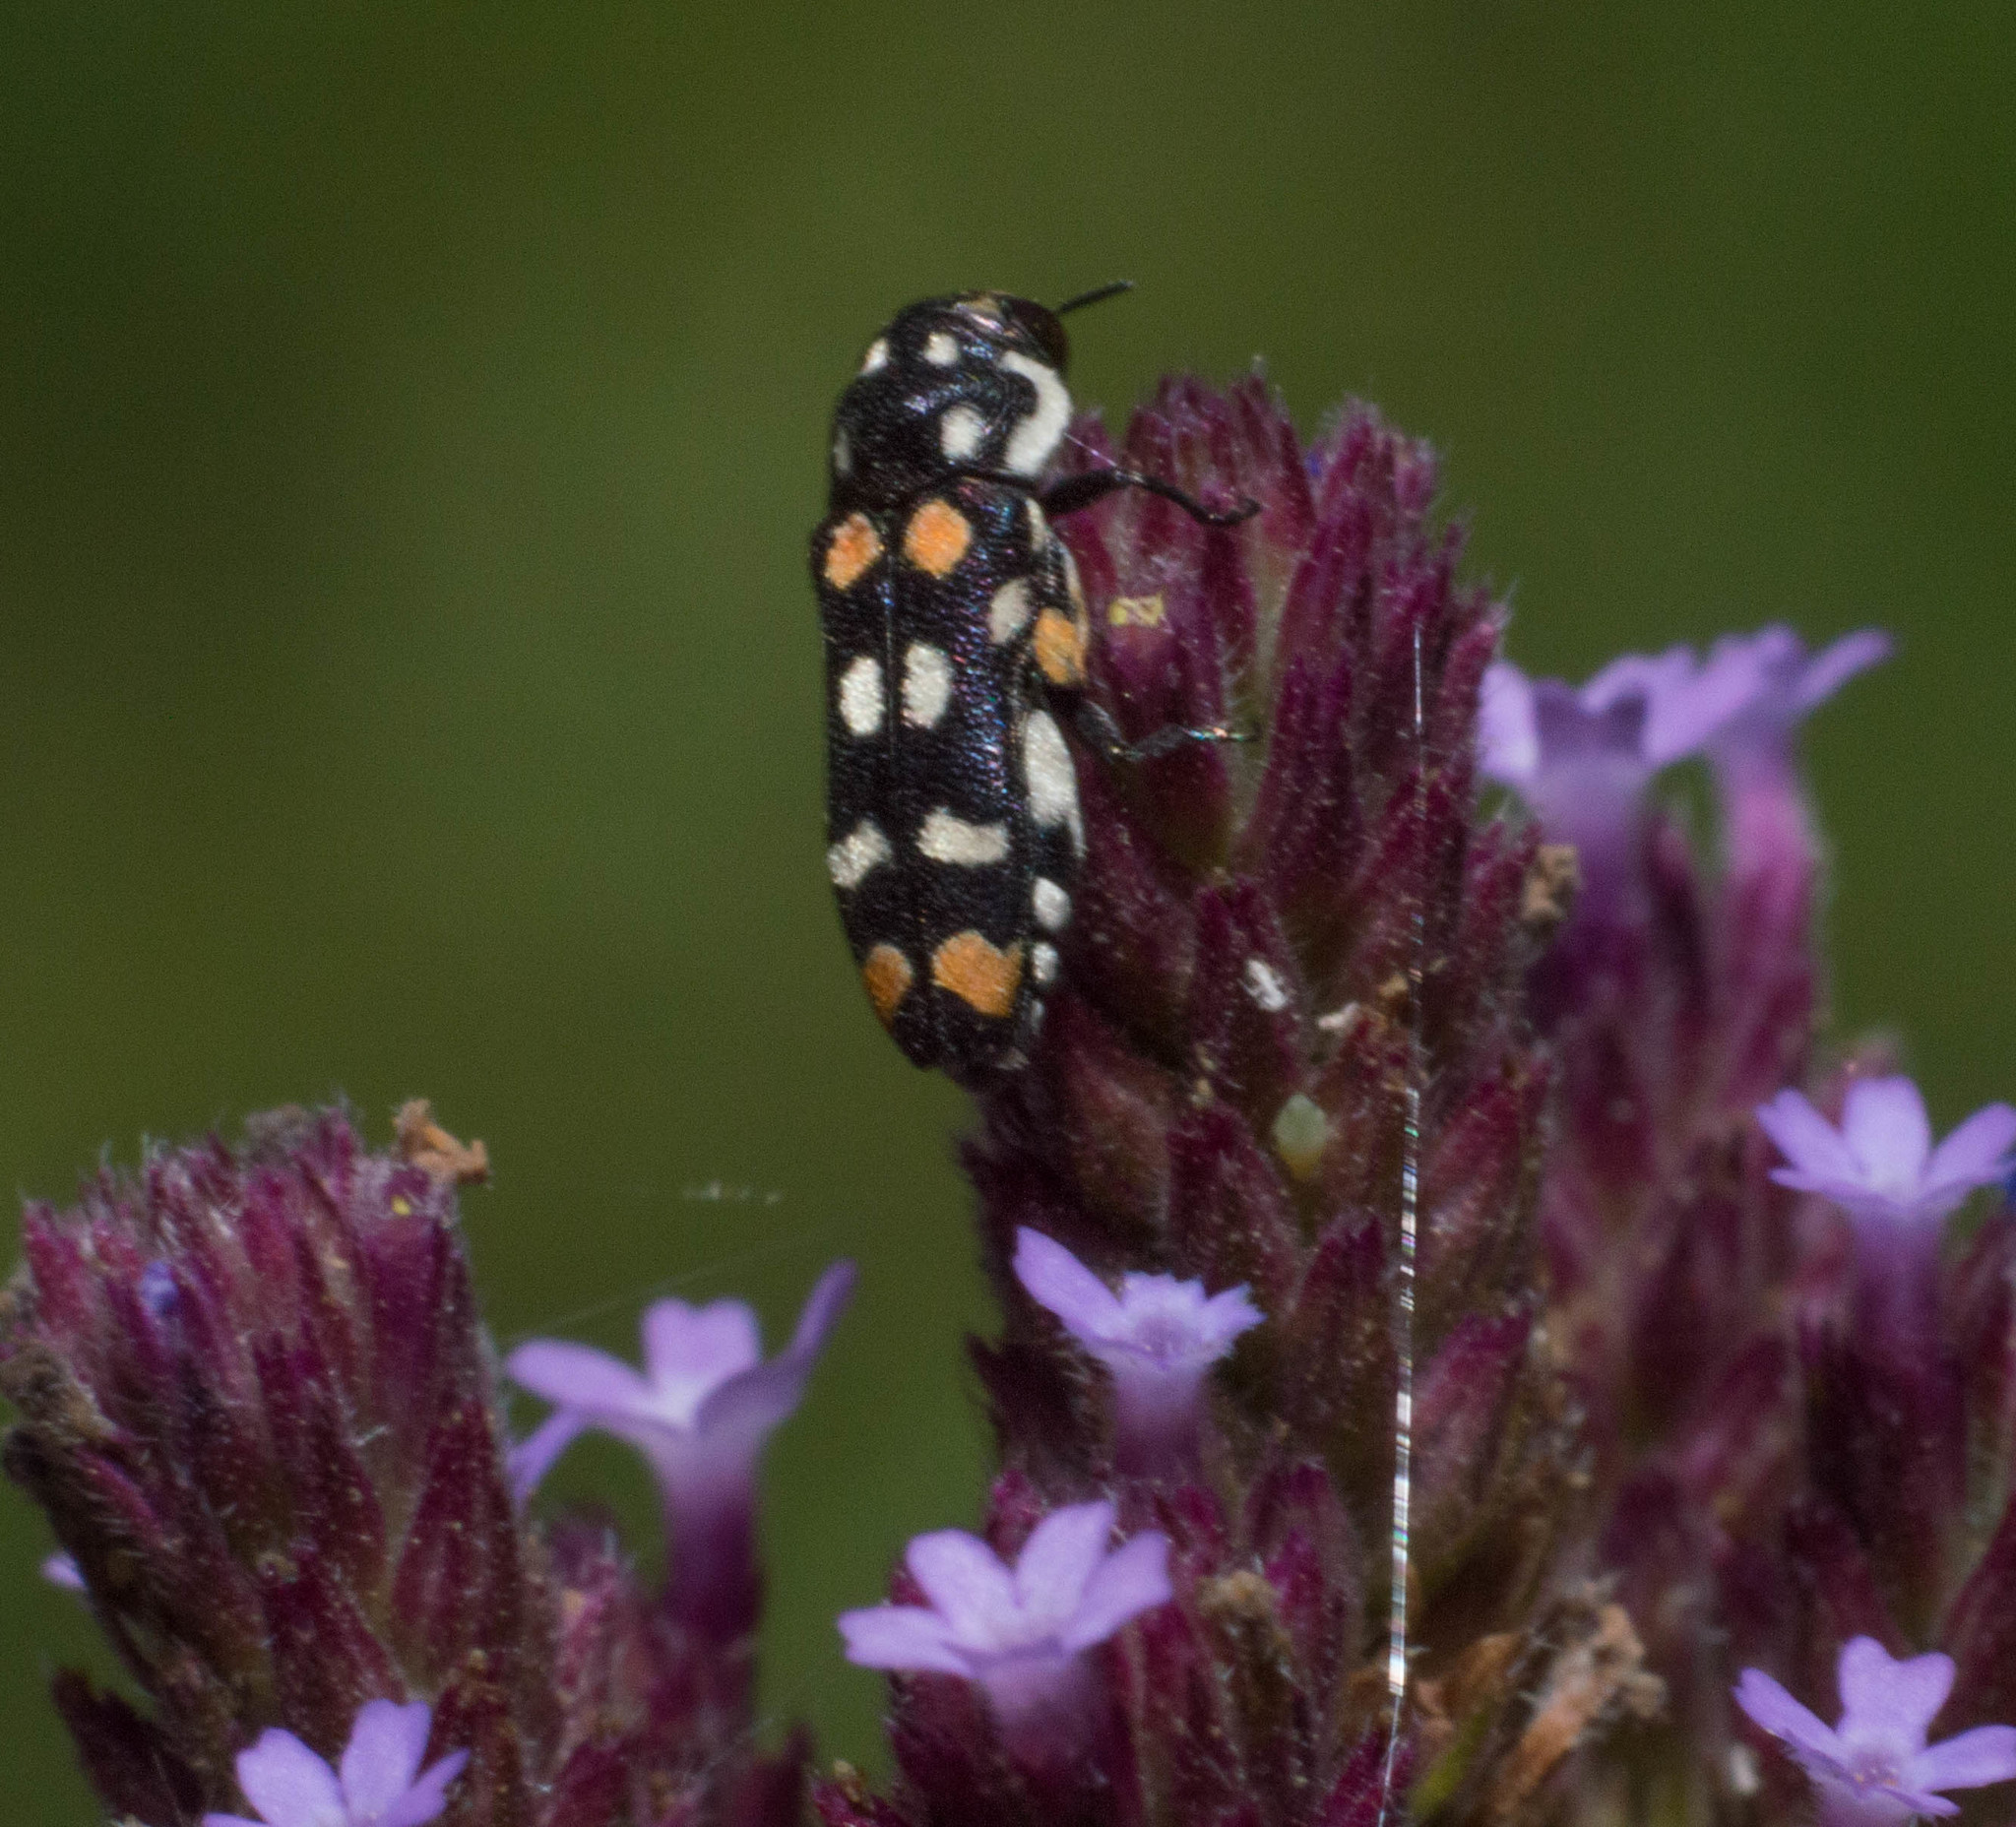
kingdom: Animalia
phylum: Arthropoda
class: Insecta
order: Coleoptera
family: Buprestidae
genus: Bergidora
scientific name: Bergidora picturella
